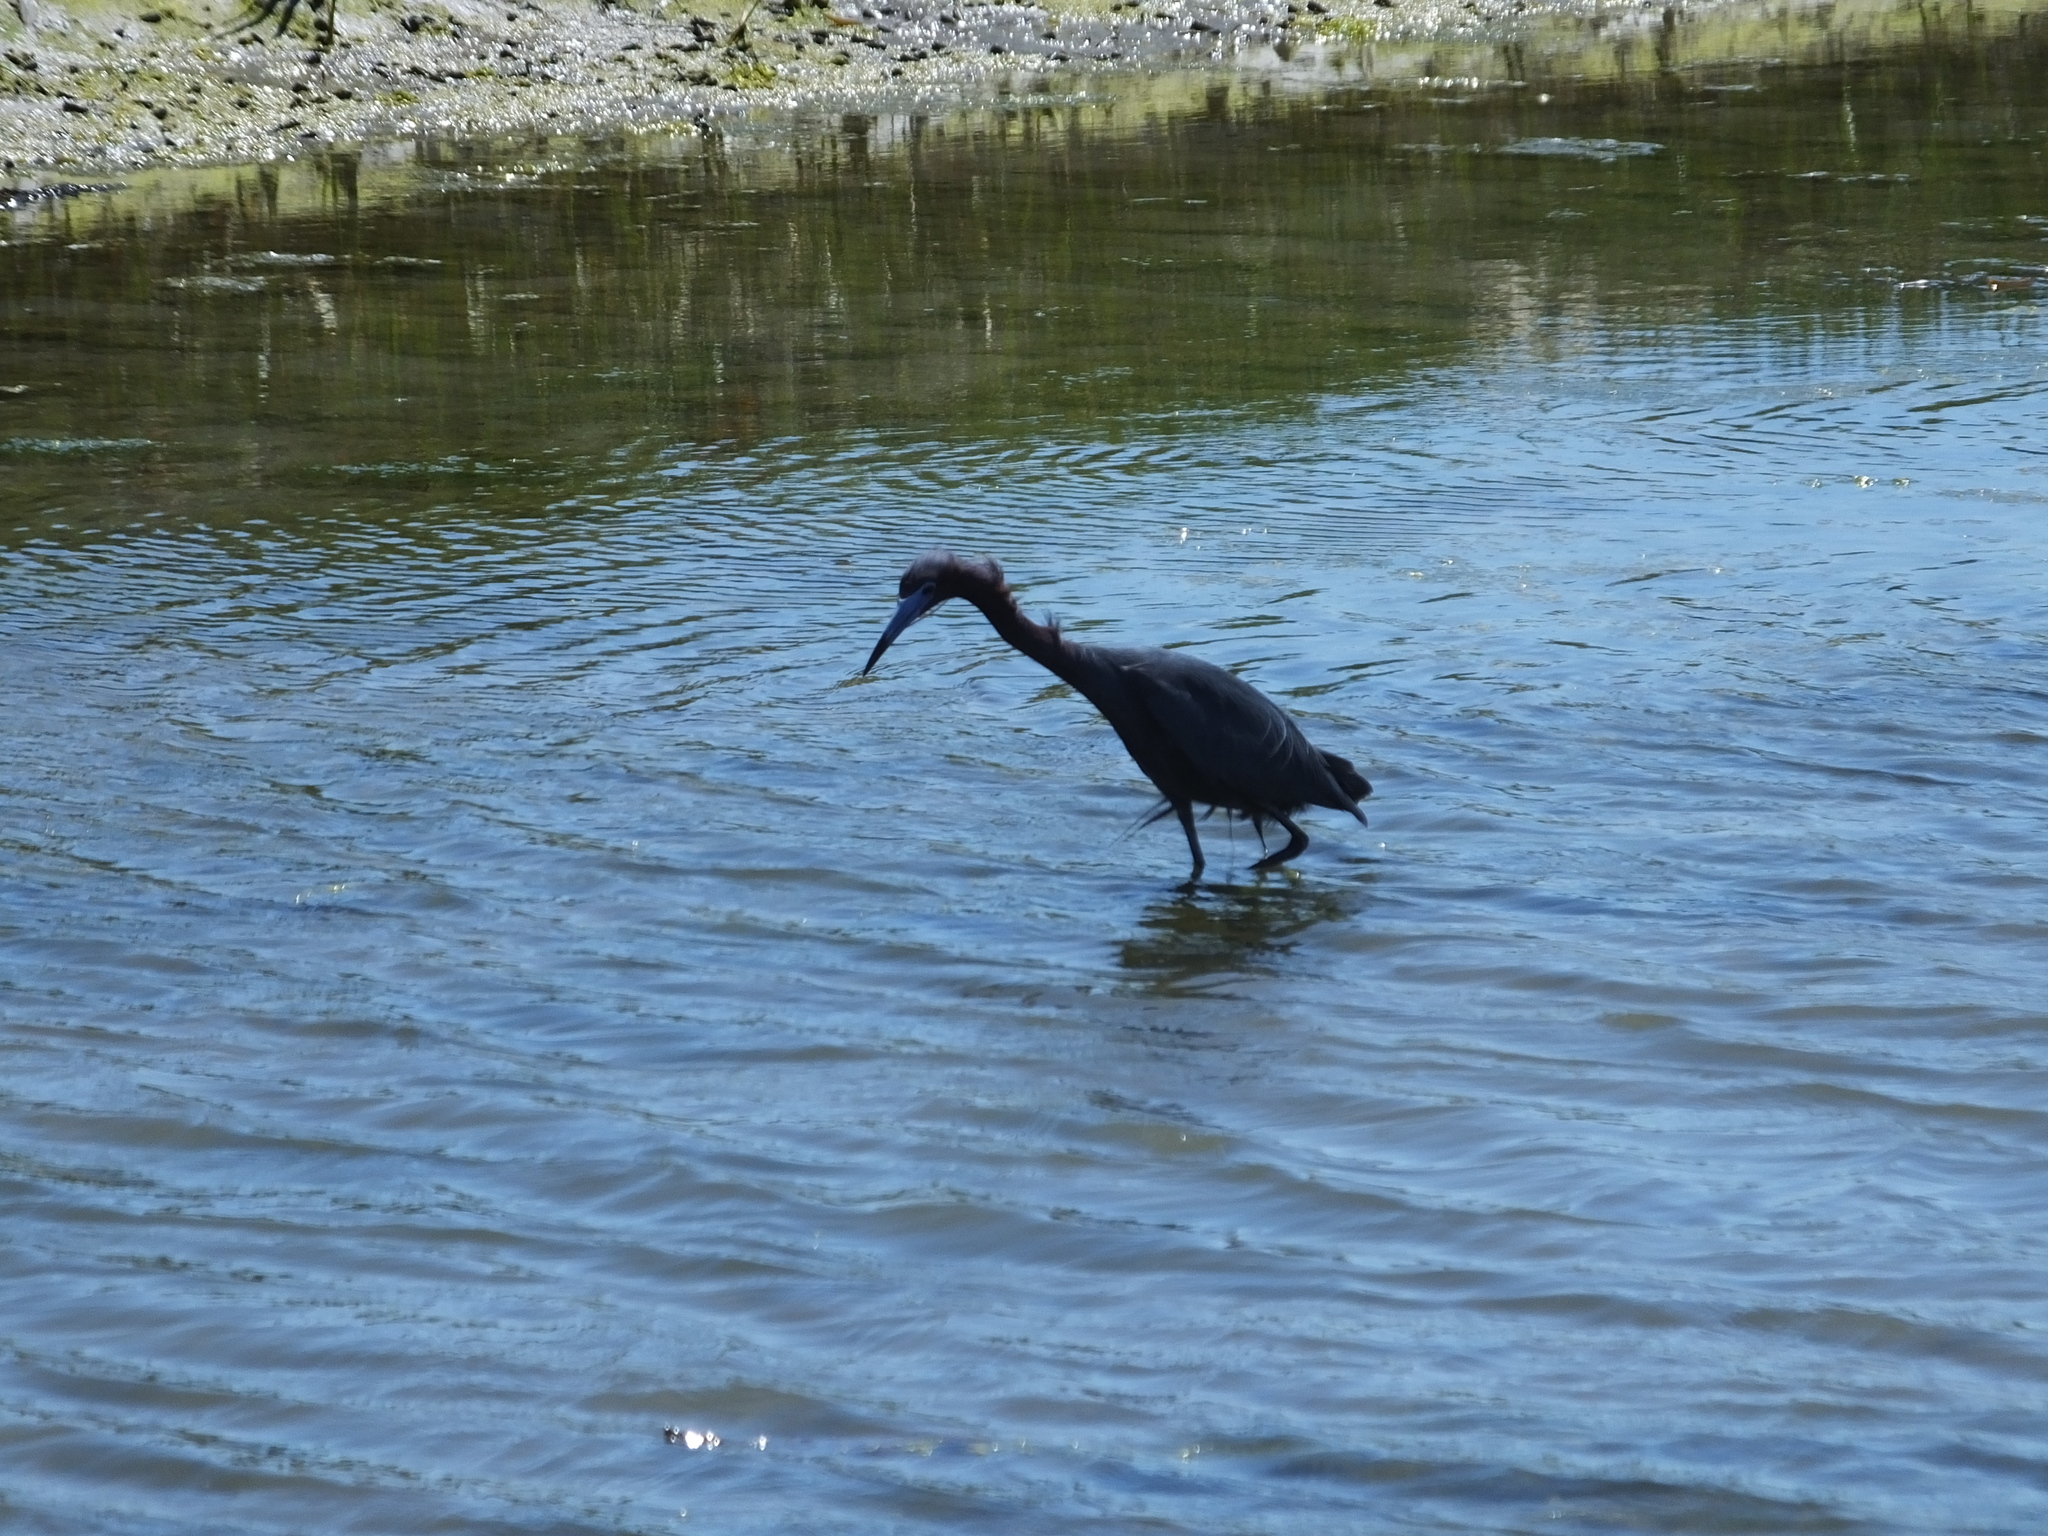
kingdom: Animalia
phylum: Chordata
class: Aves
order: Pelecaniformes
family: Ardeidae
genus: Egretta
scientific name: Egretta caerulea
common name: Little blue heron
